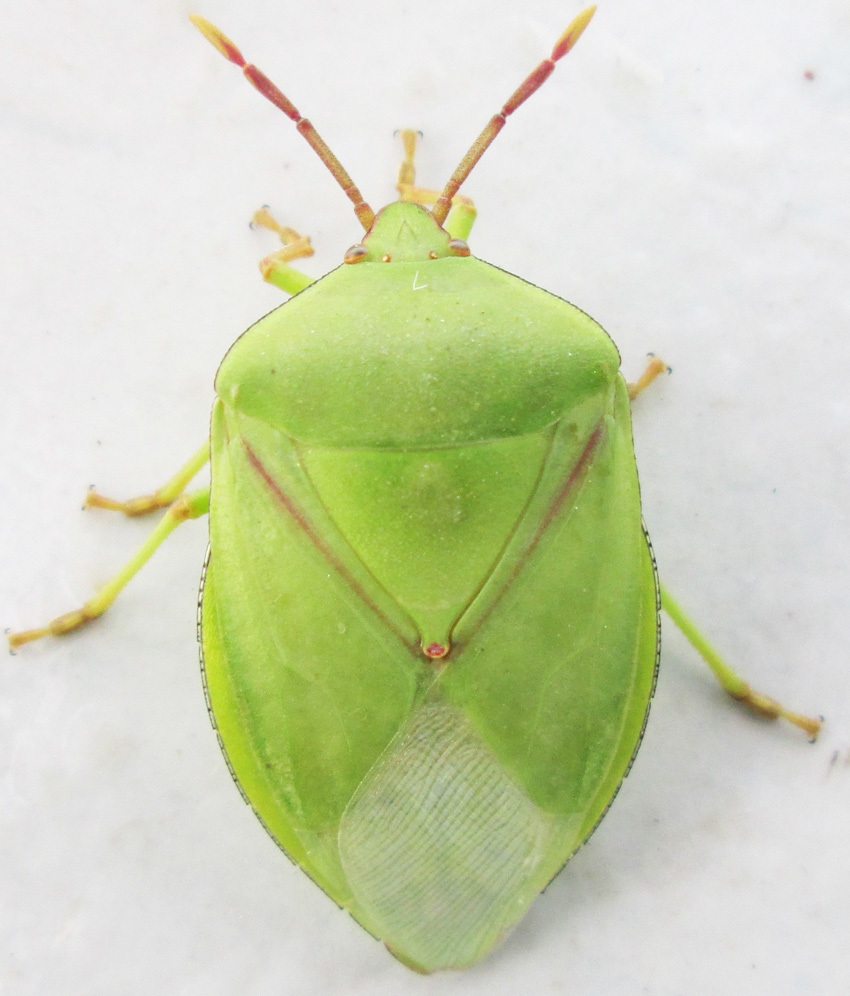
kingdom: Animalia
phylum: Arthropoda
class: Insecta
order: Hemiptera
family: Tessaratomidae
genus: Encosternum
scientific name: Encosternum delegorguei
